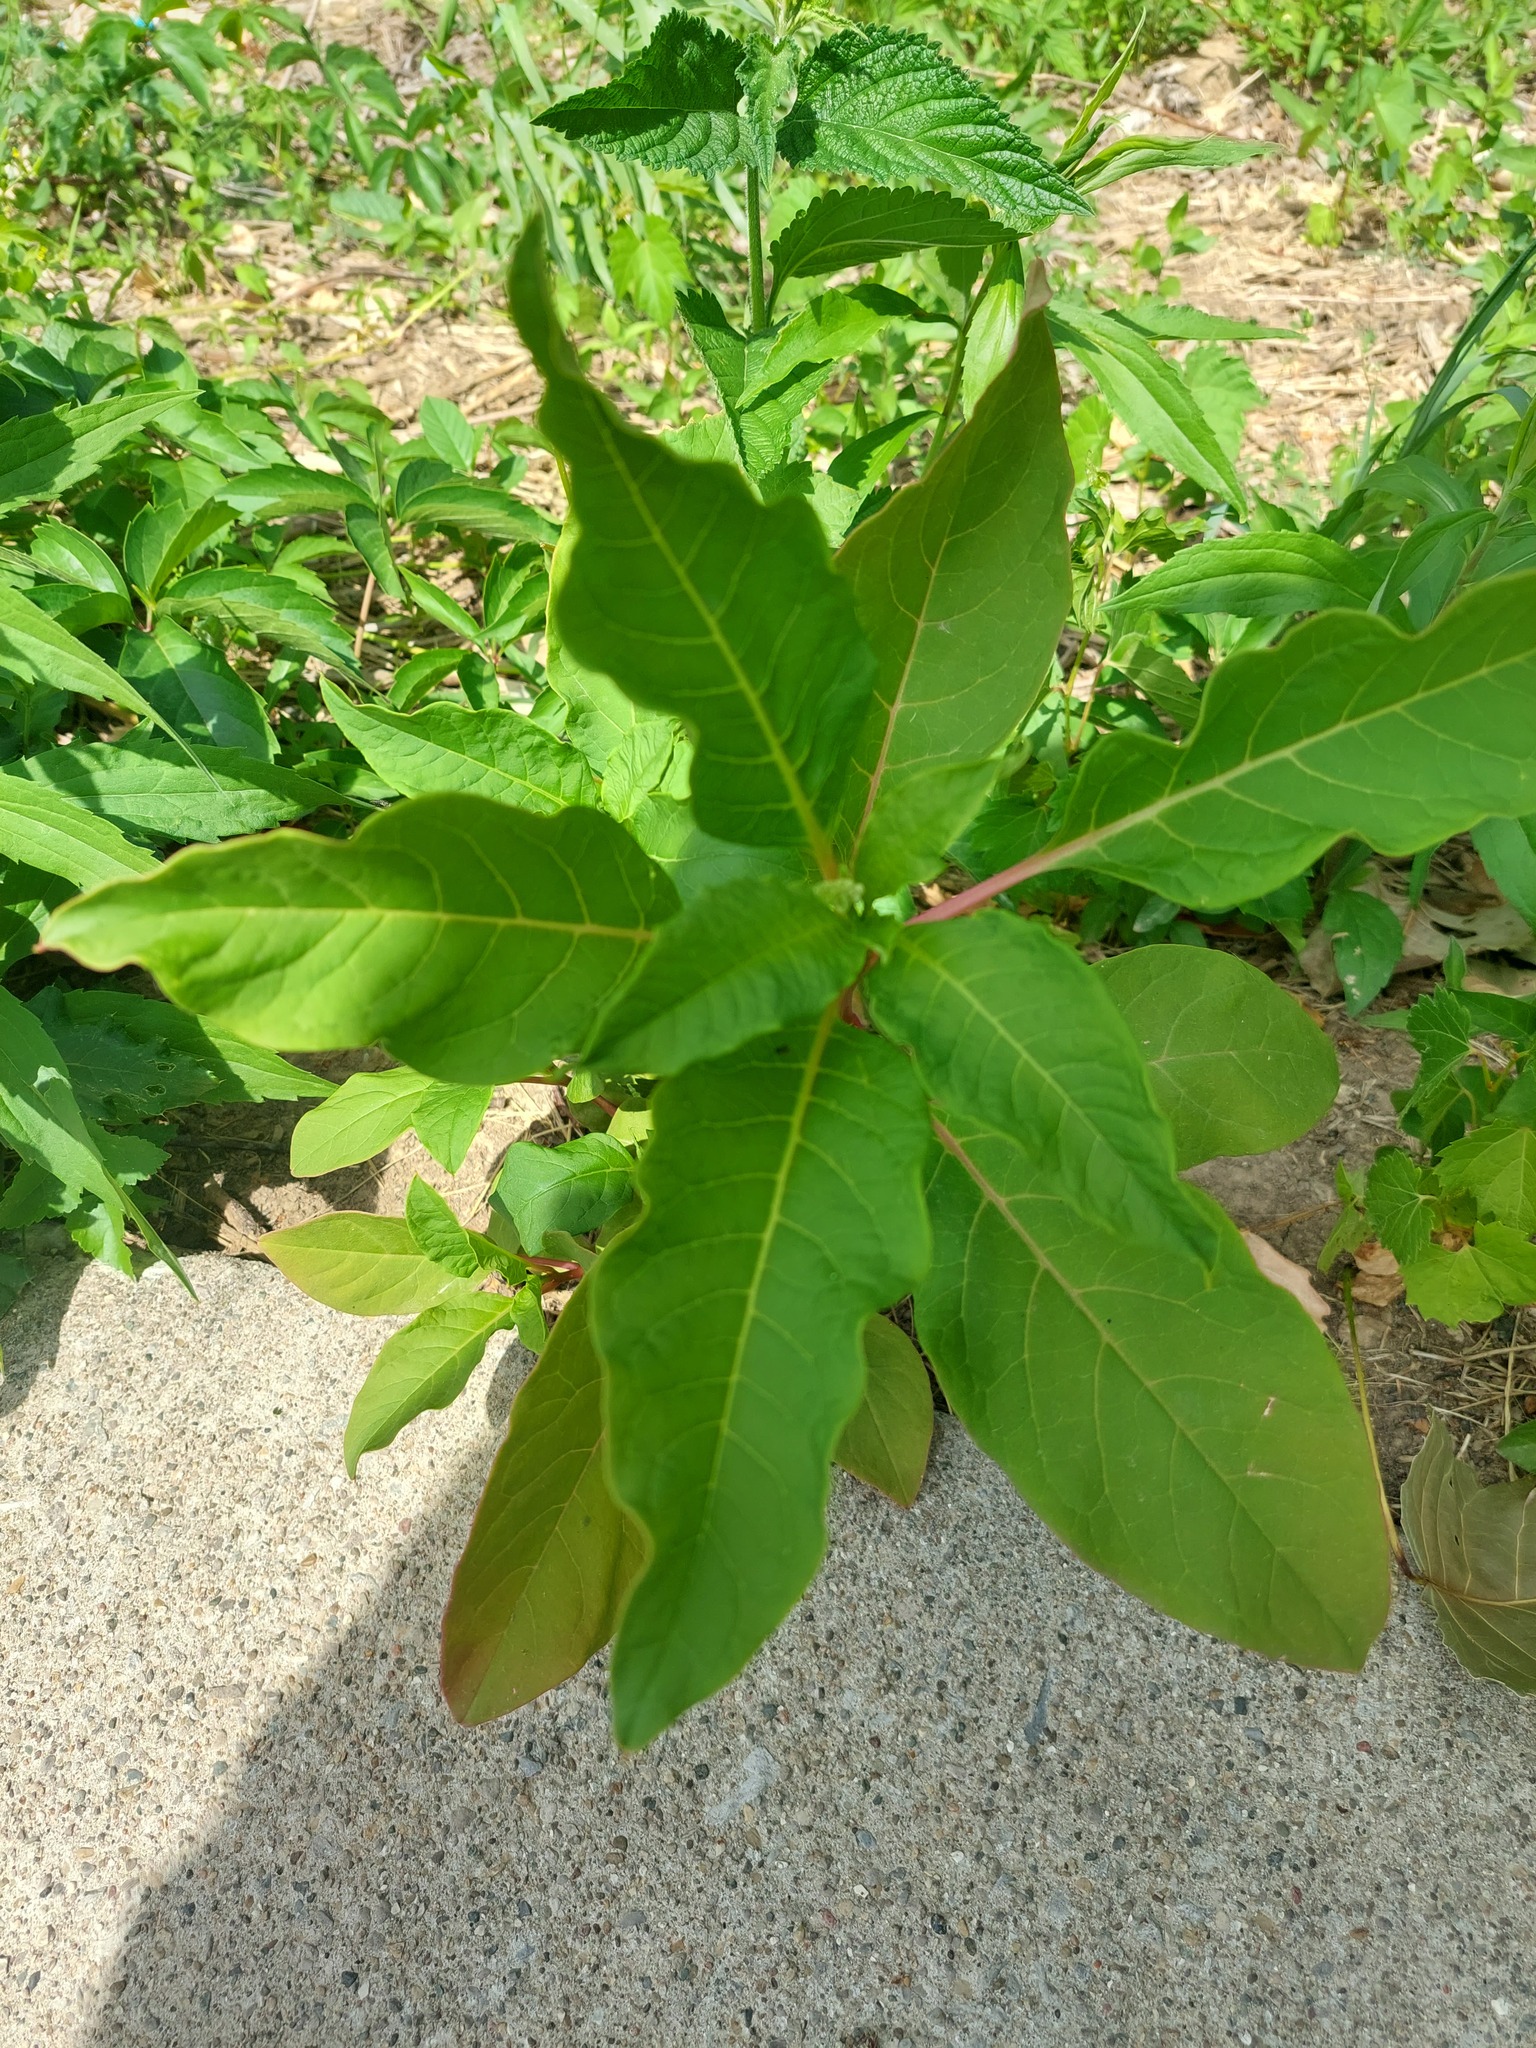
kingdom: Plantae
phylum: Tracheophyta
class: Magnoliopsida
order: Caryophyllales
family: Phytolaccaceae
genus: Phytolacca
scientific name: Phytolacca americana
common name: American pokeweed
